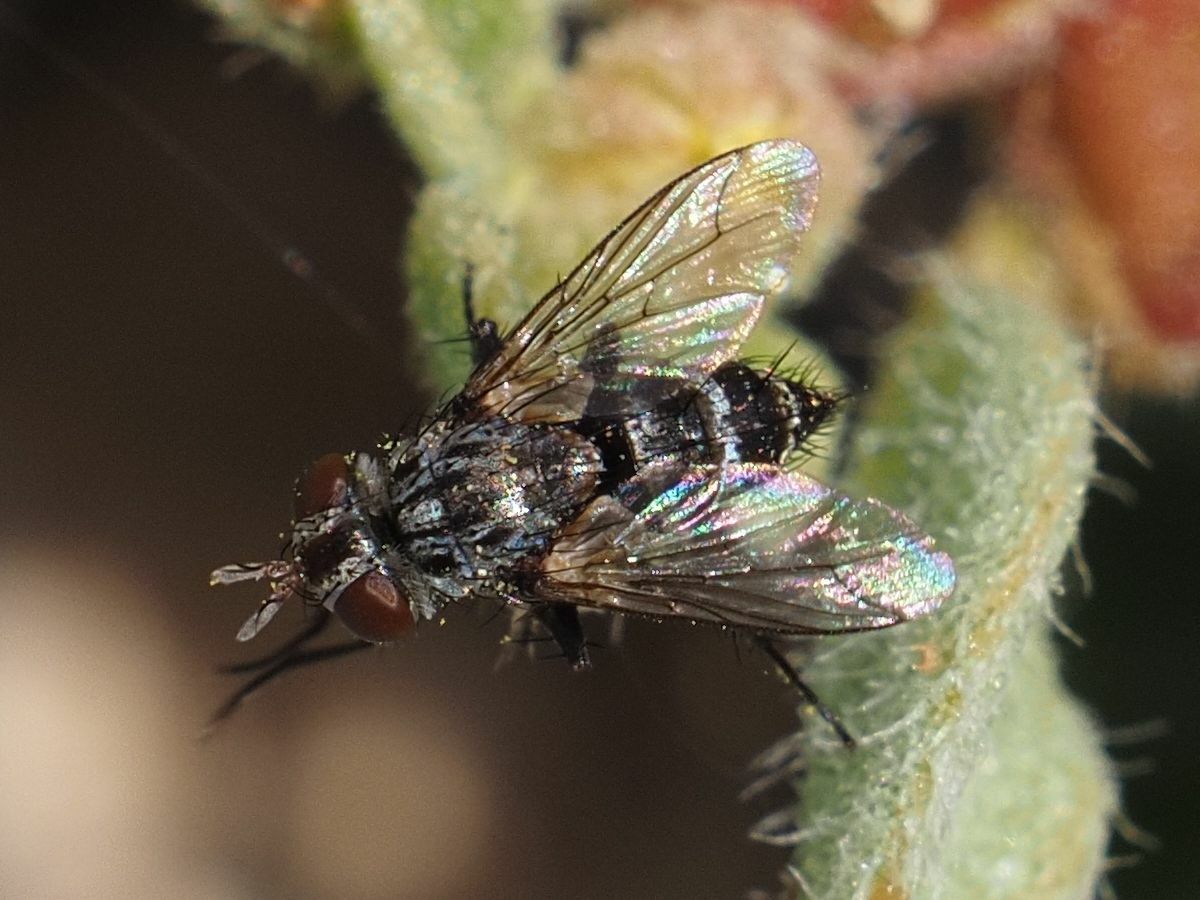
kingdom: Animalia
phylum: Arthropoda
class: Insecta
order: Diptera
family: Tachinidae
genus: Chetogena
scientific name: Chetogena acuminata
